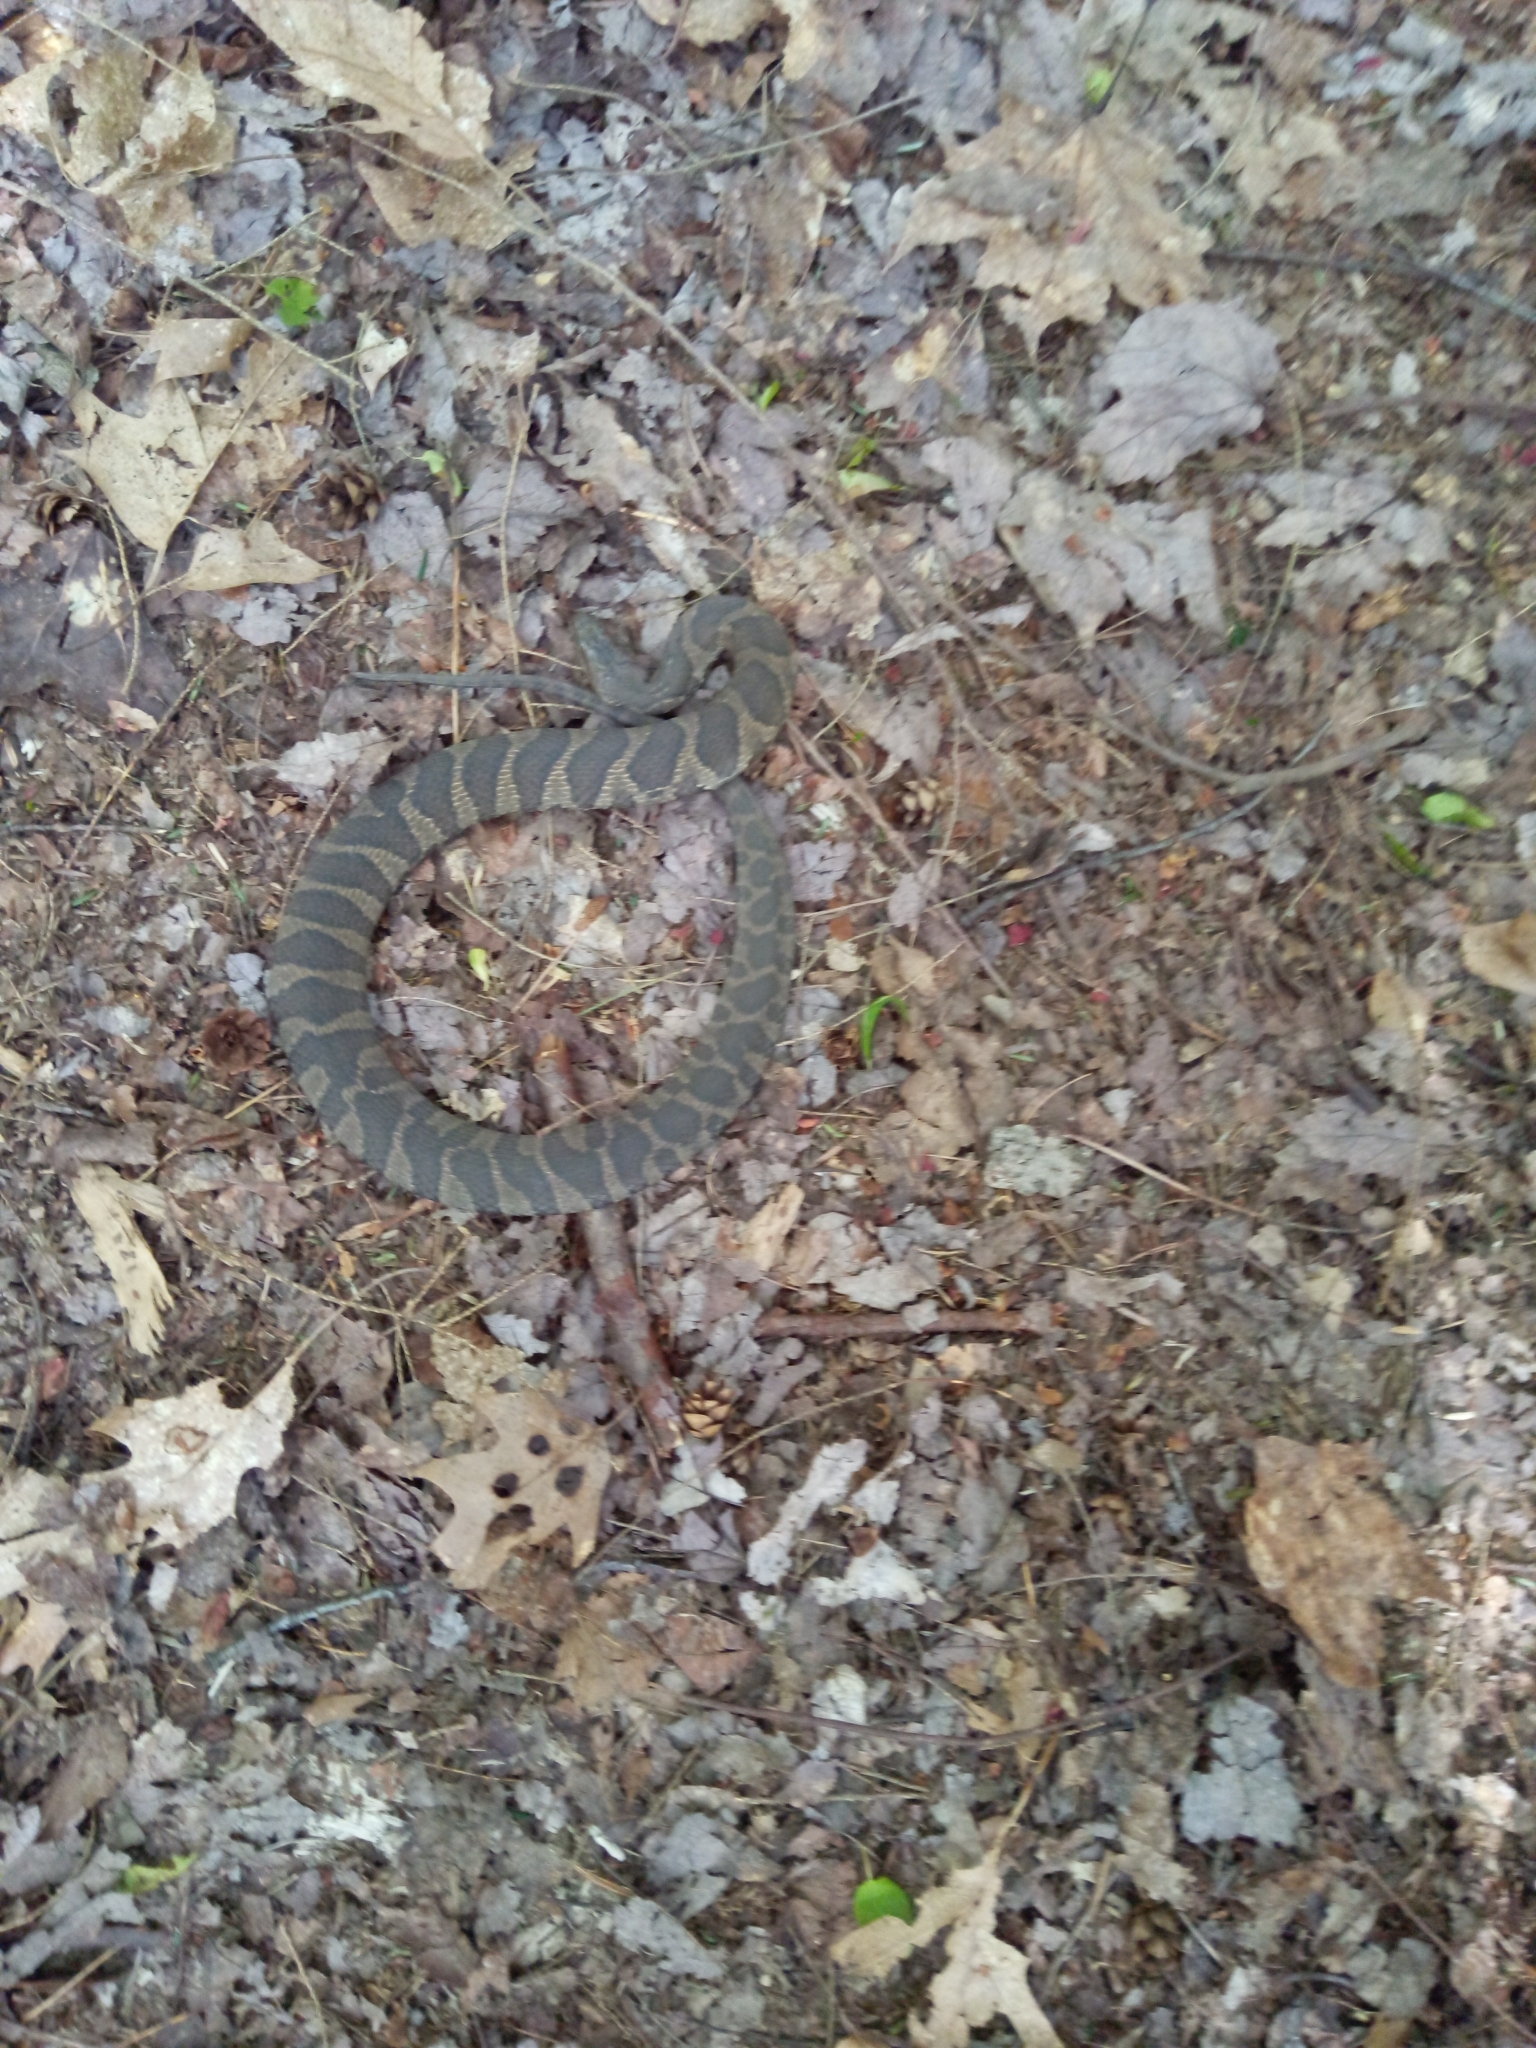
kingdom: Animalia
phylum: Chordata
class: Squamata
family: Colubridae
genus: Nerodia
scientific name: Nerodia sipedon
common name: Northern water snake
